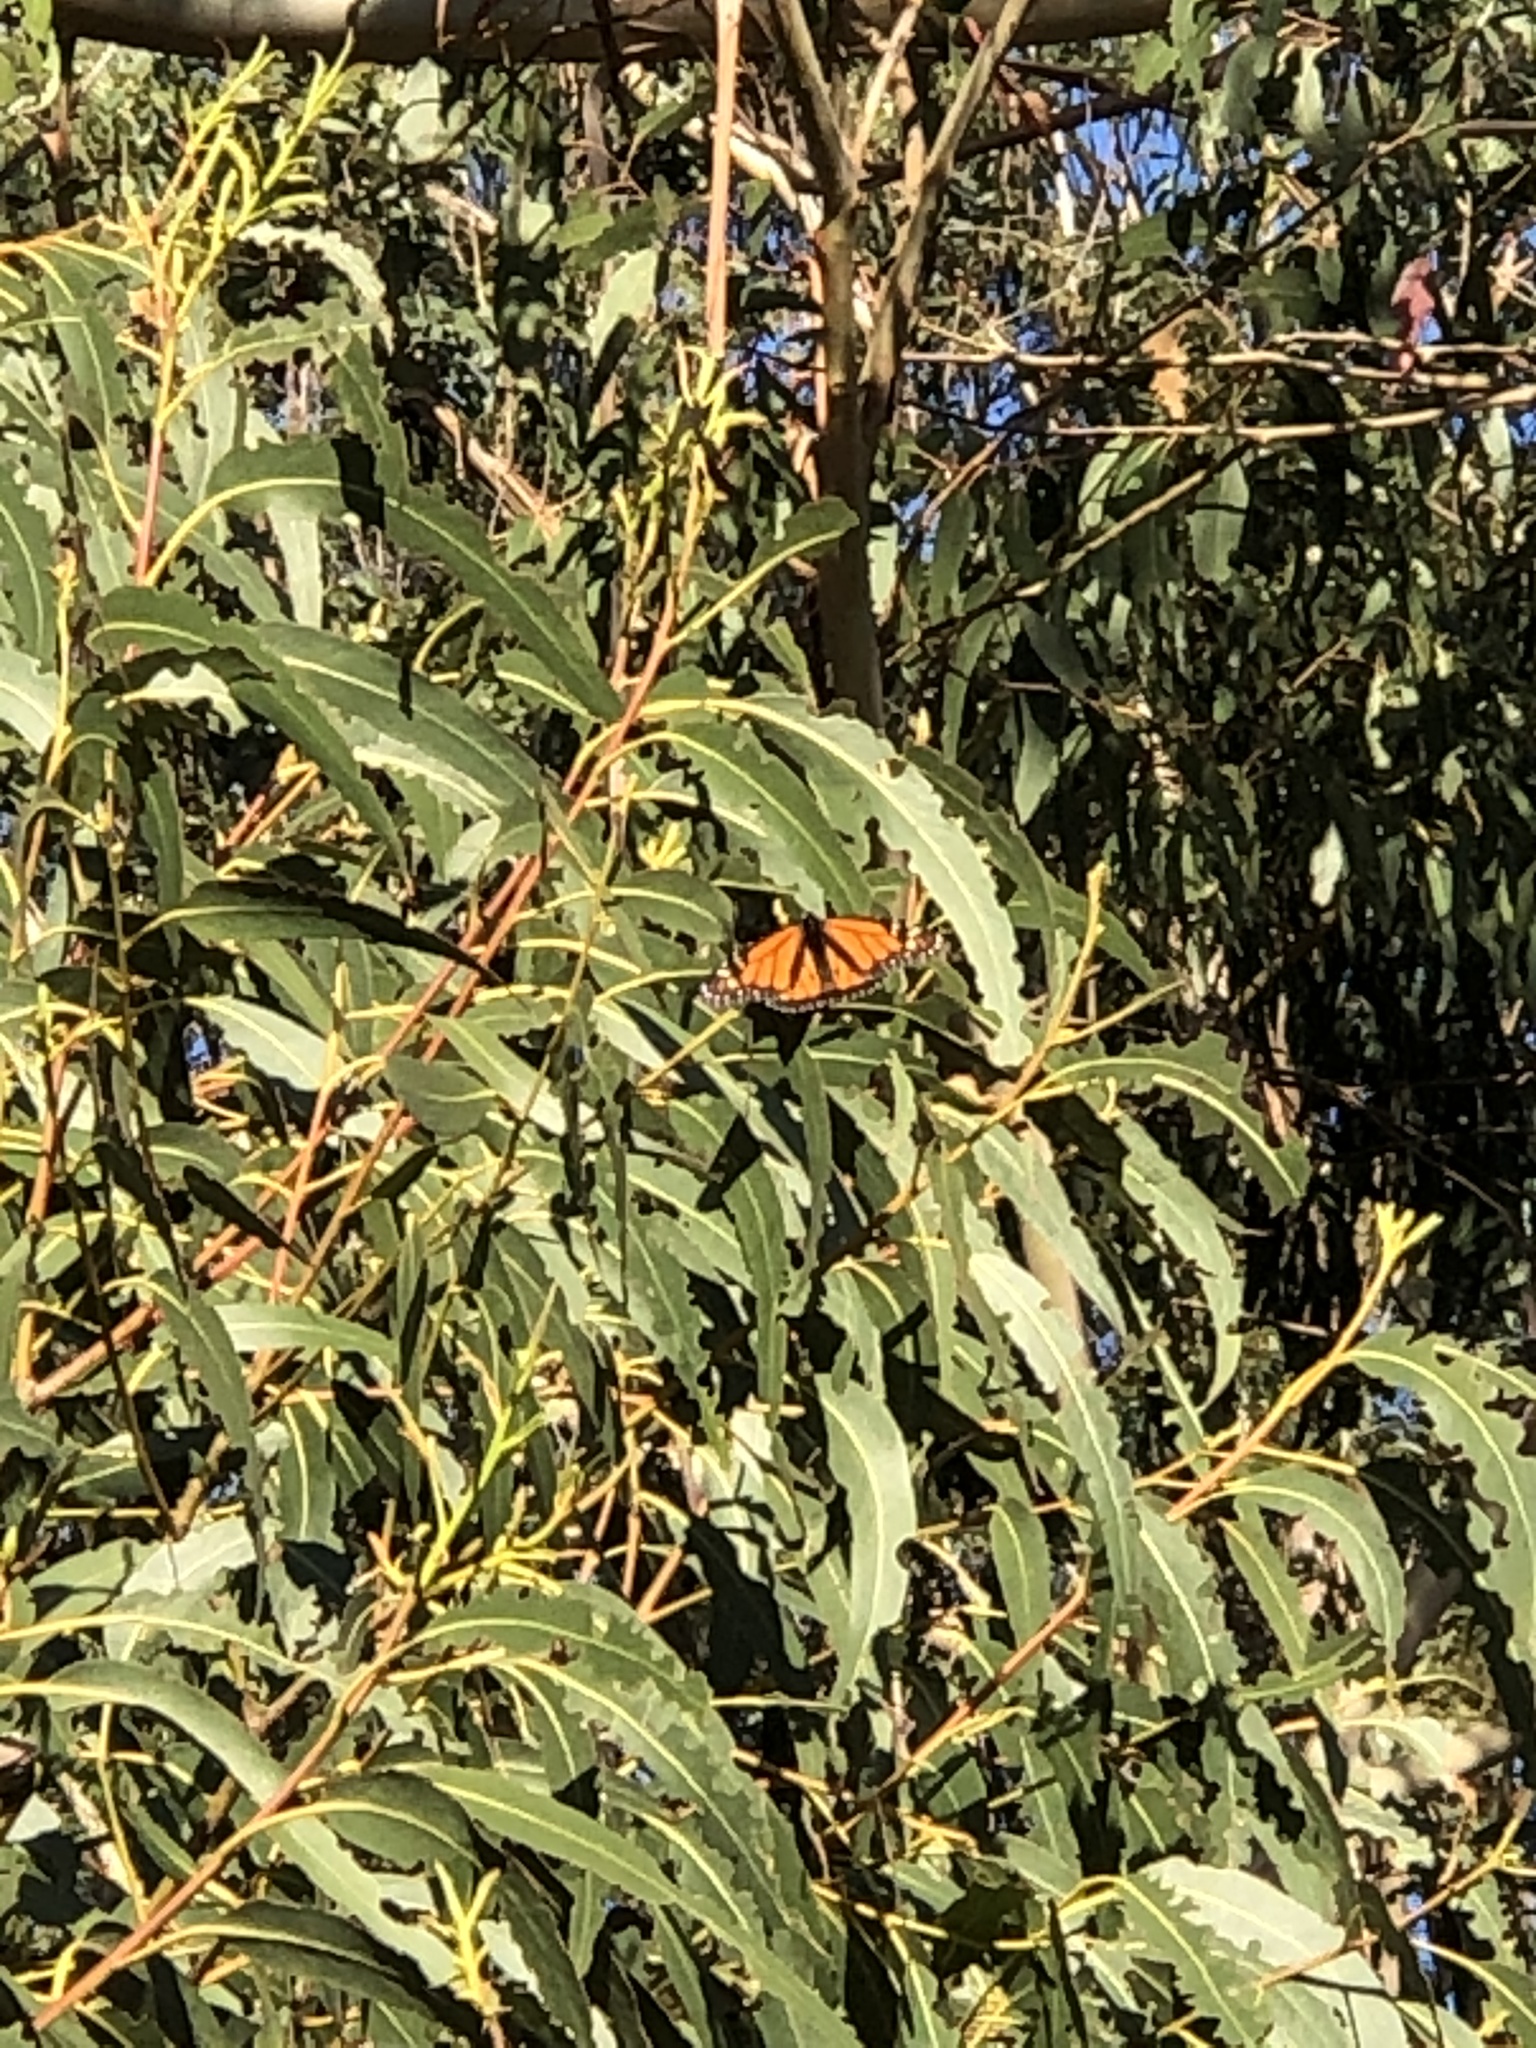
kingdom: Animalia
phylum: Arthropoda
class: Insecta
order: Lepidoptera
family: Nymphalidae
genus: Danaus
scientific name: Danaus plexippus
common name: Monarch
